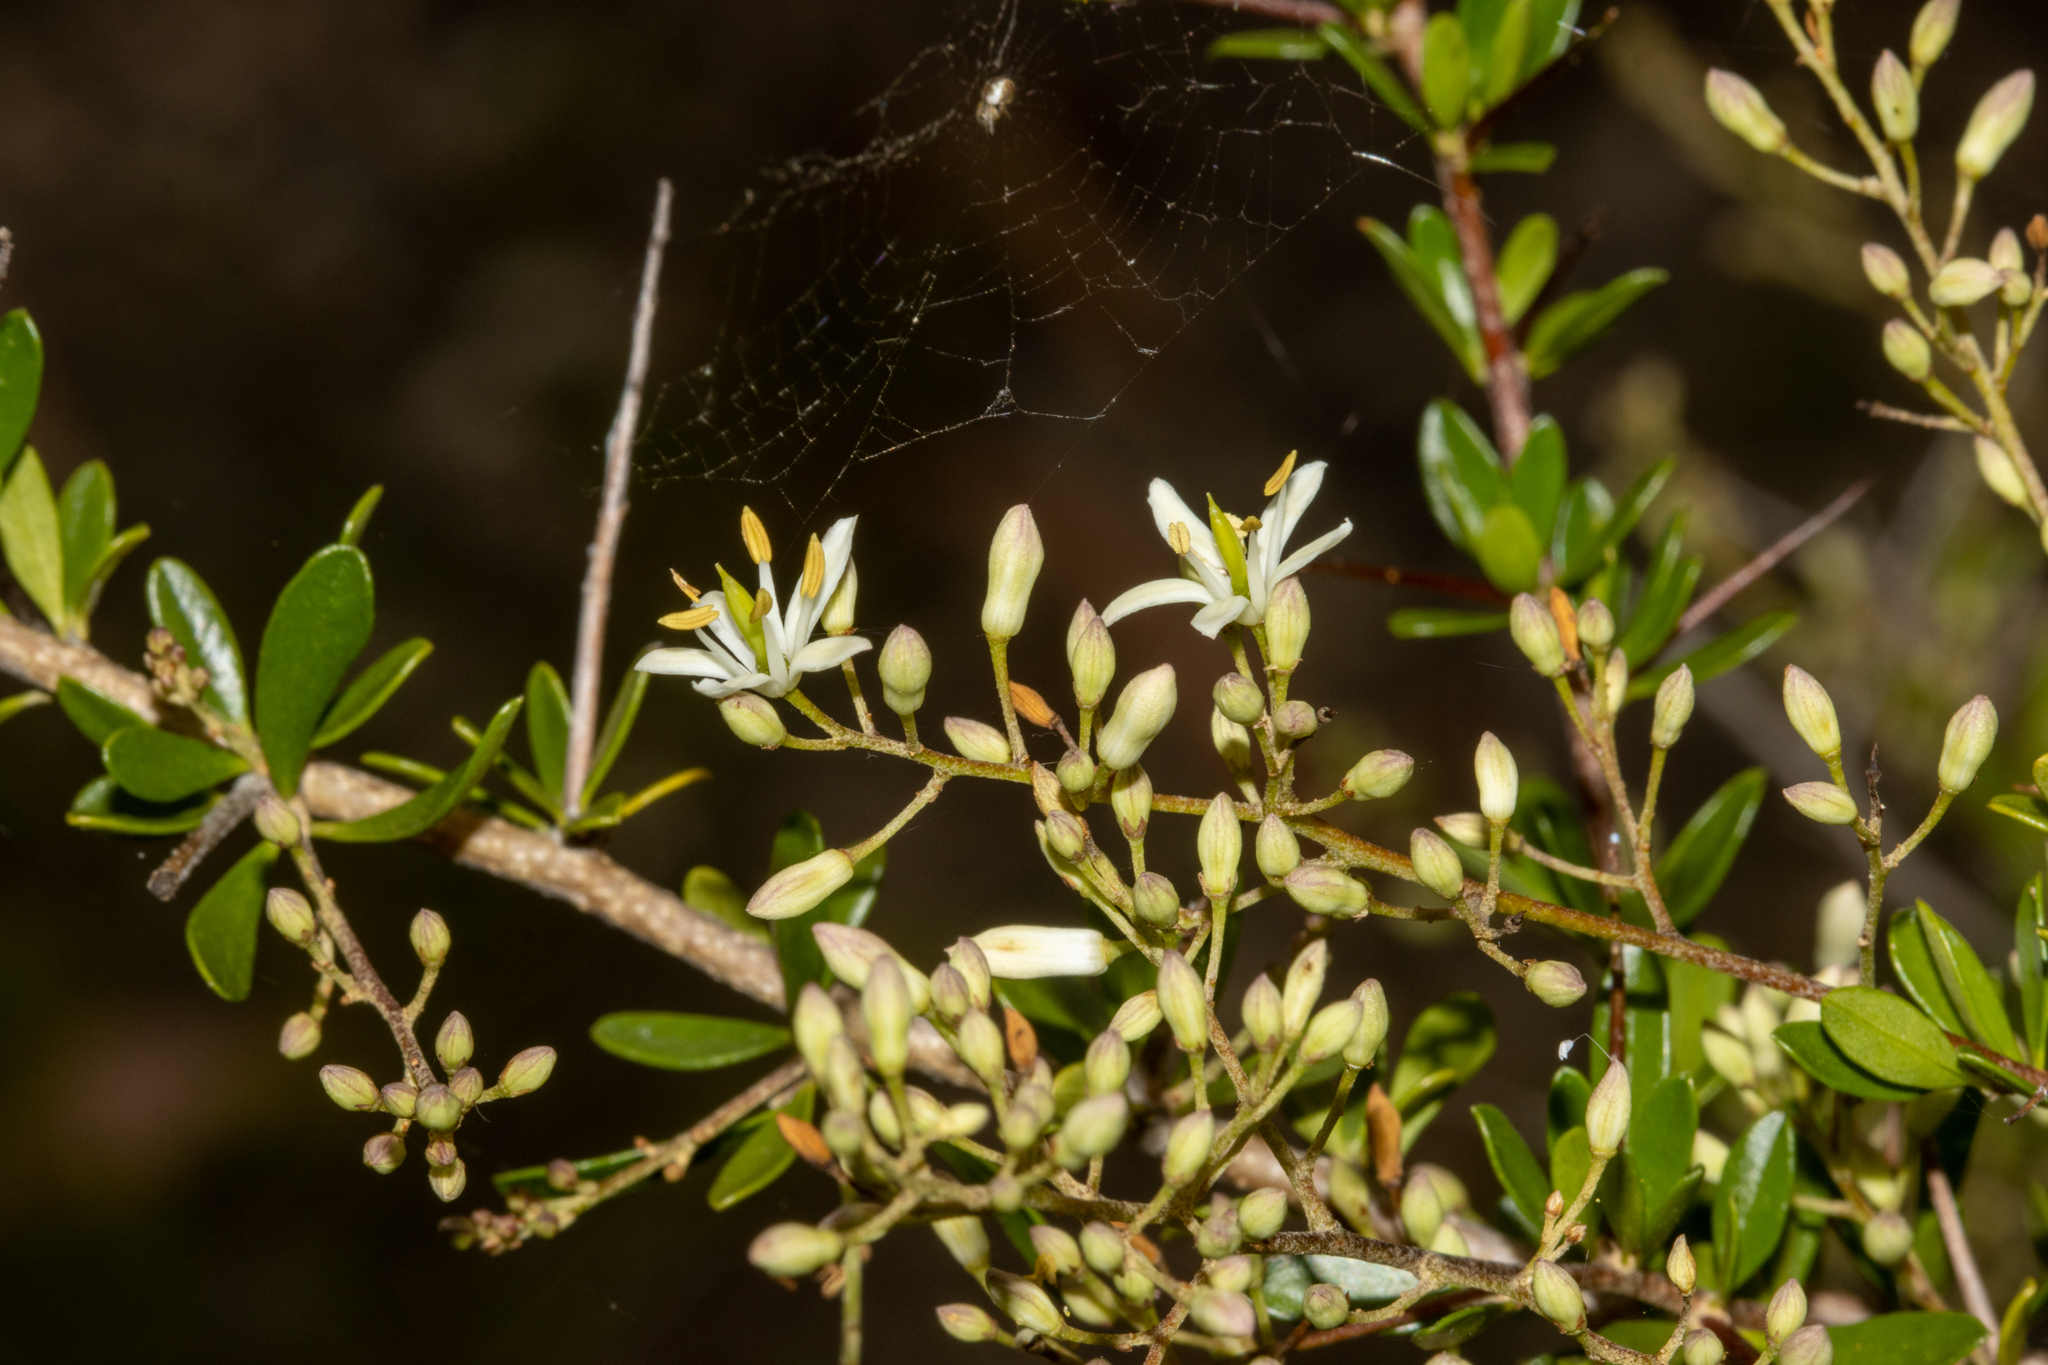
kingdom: Plantae
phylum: Tracheophyta
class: Magnoliopsida
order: Apiales
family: Pittosporaceae
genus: Bursaria
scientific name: Bursaria spinosa
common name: Australian blackthorn
